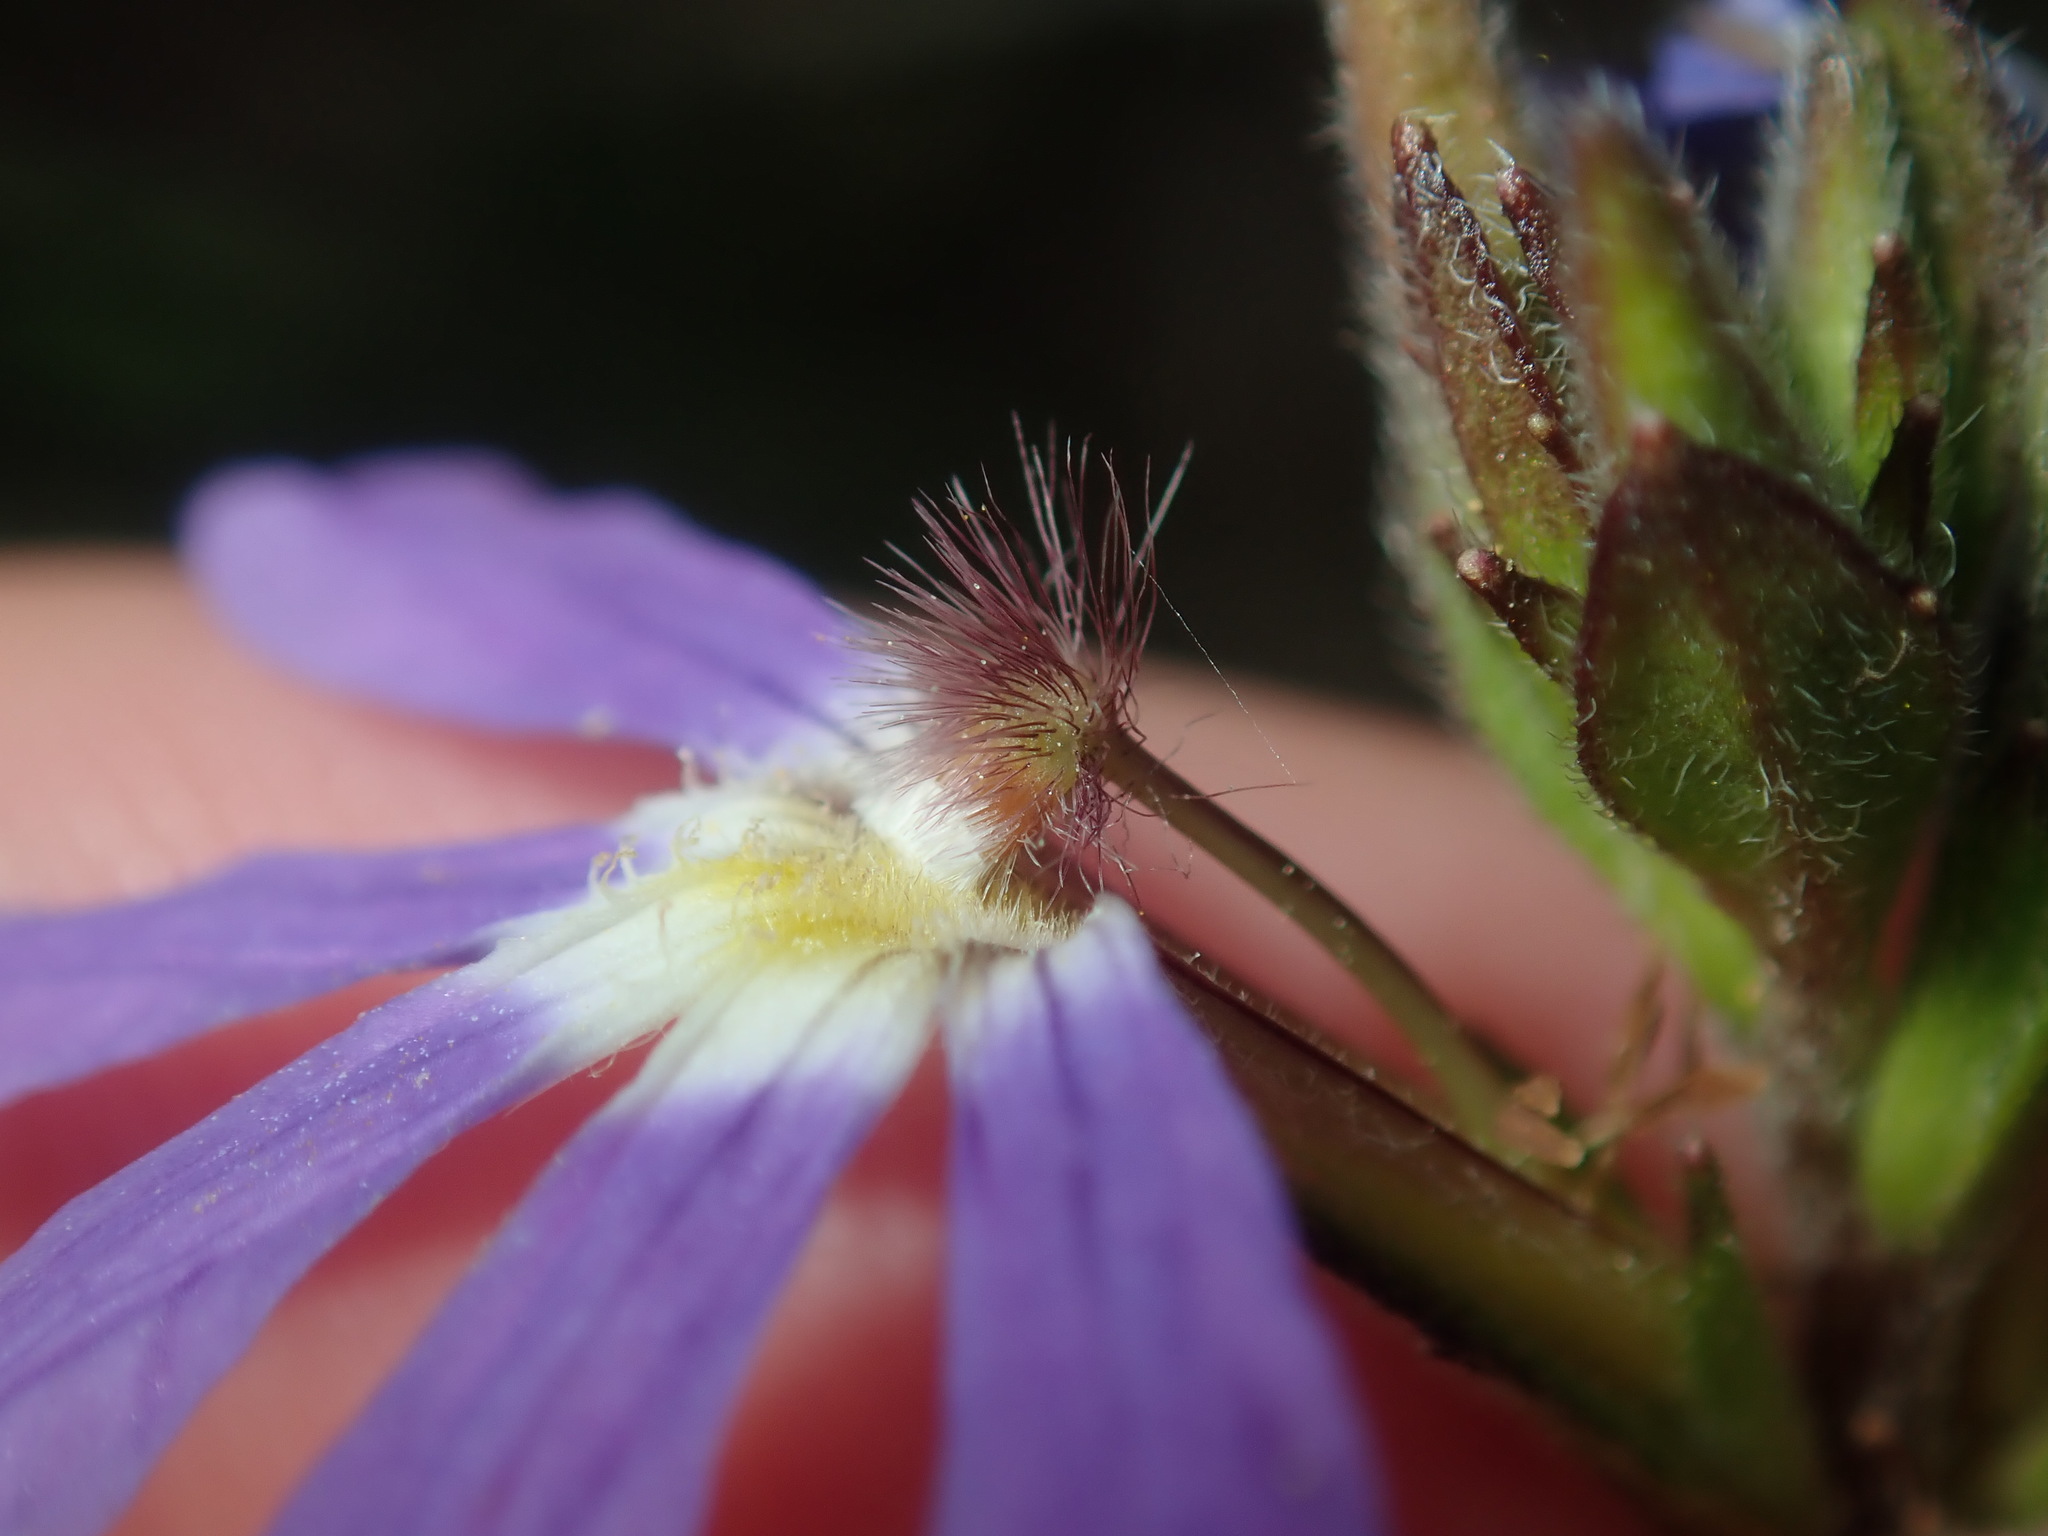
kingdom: Plantae
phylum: Tracheophyta
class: Magnoliopsida
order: Asterales
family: Goodeniaceae
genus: Scaevola
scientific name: Scaevola aemula
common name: Common fanflower
